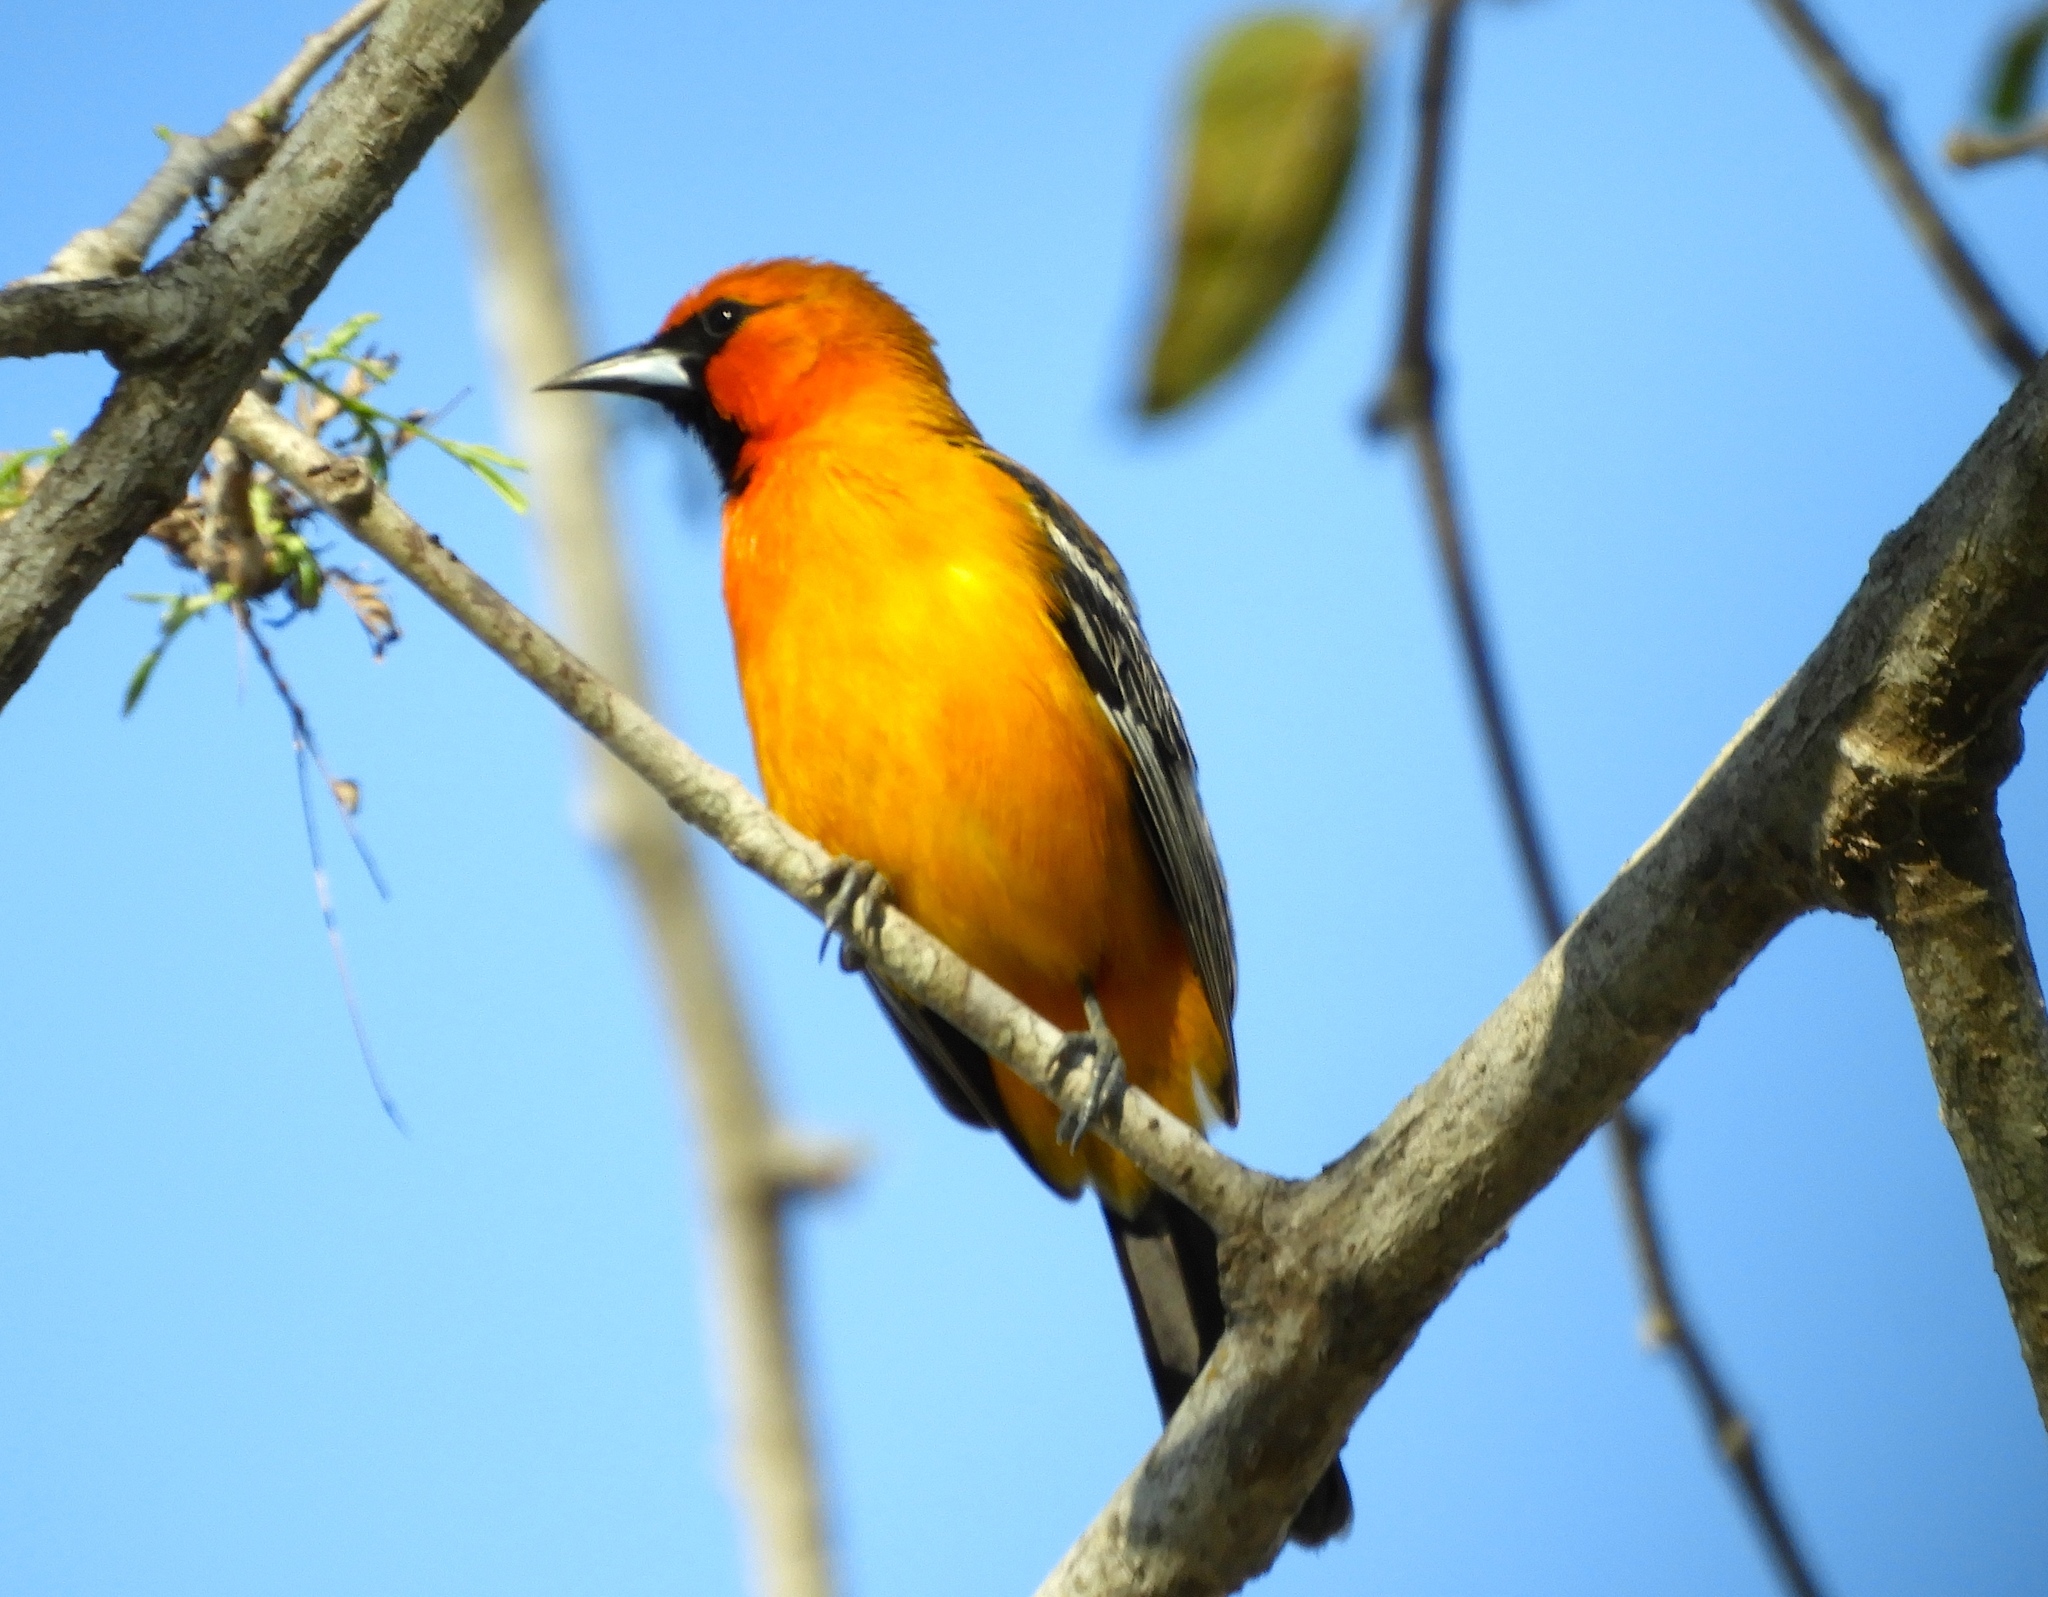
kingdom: Animalia
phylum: Chordata
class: Aves
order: Passeriformes
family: Icteridae
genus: Icterus
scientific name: Icterus pustulatus
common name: Streak-backed oriole
